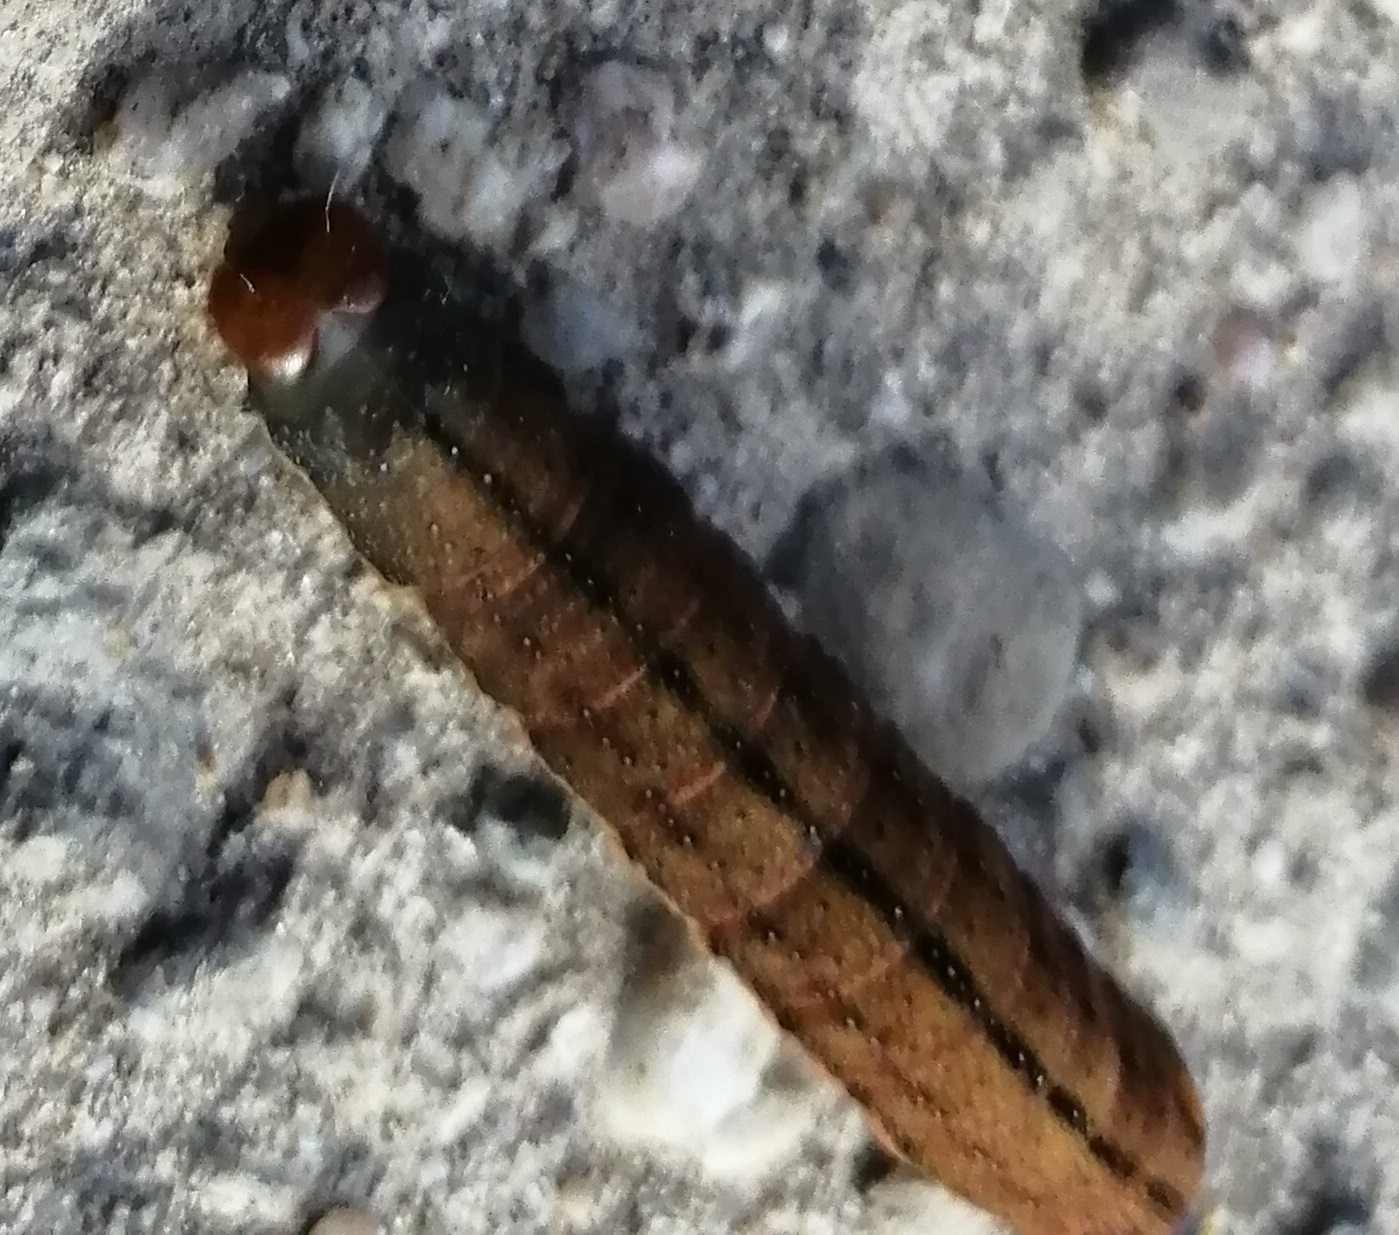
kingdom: Animalia
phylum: Arthropoda
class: Insecta
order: Lepidoptera
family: Noctuidae
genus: Trachea
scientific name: Trachea atriplicis
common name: Orache moth
